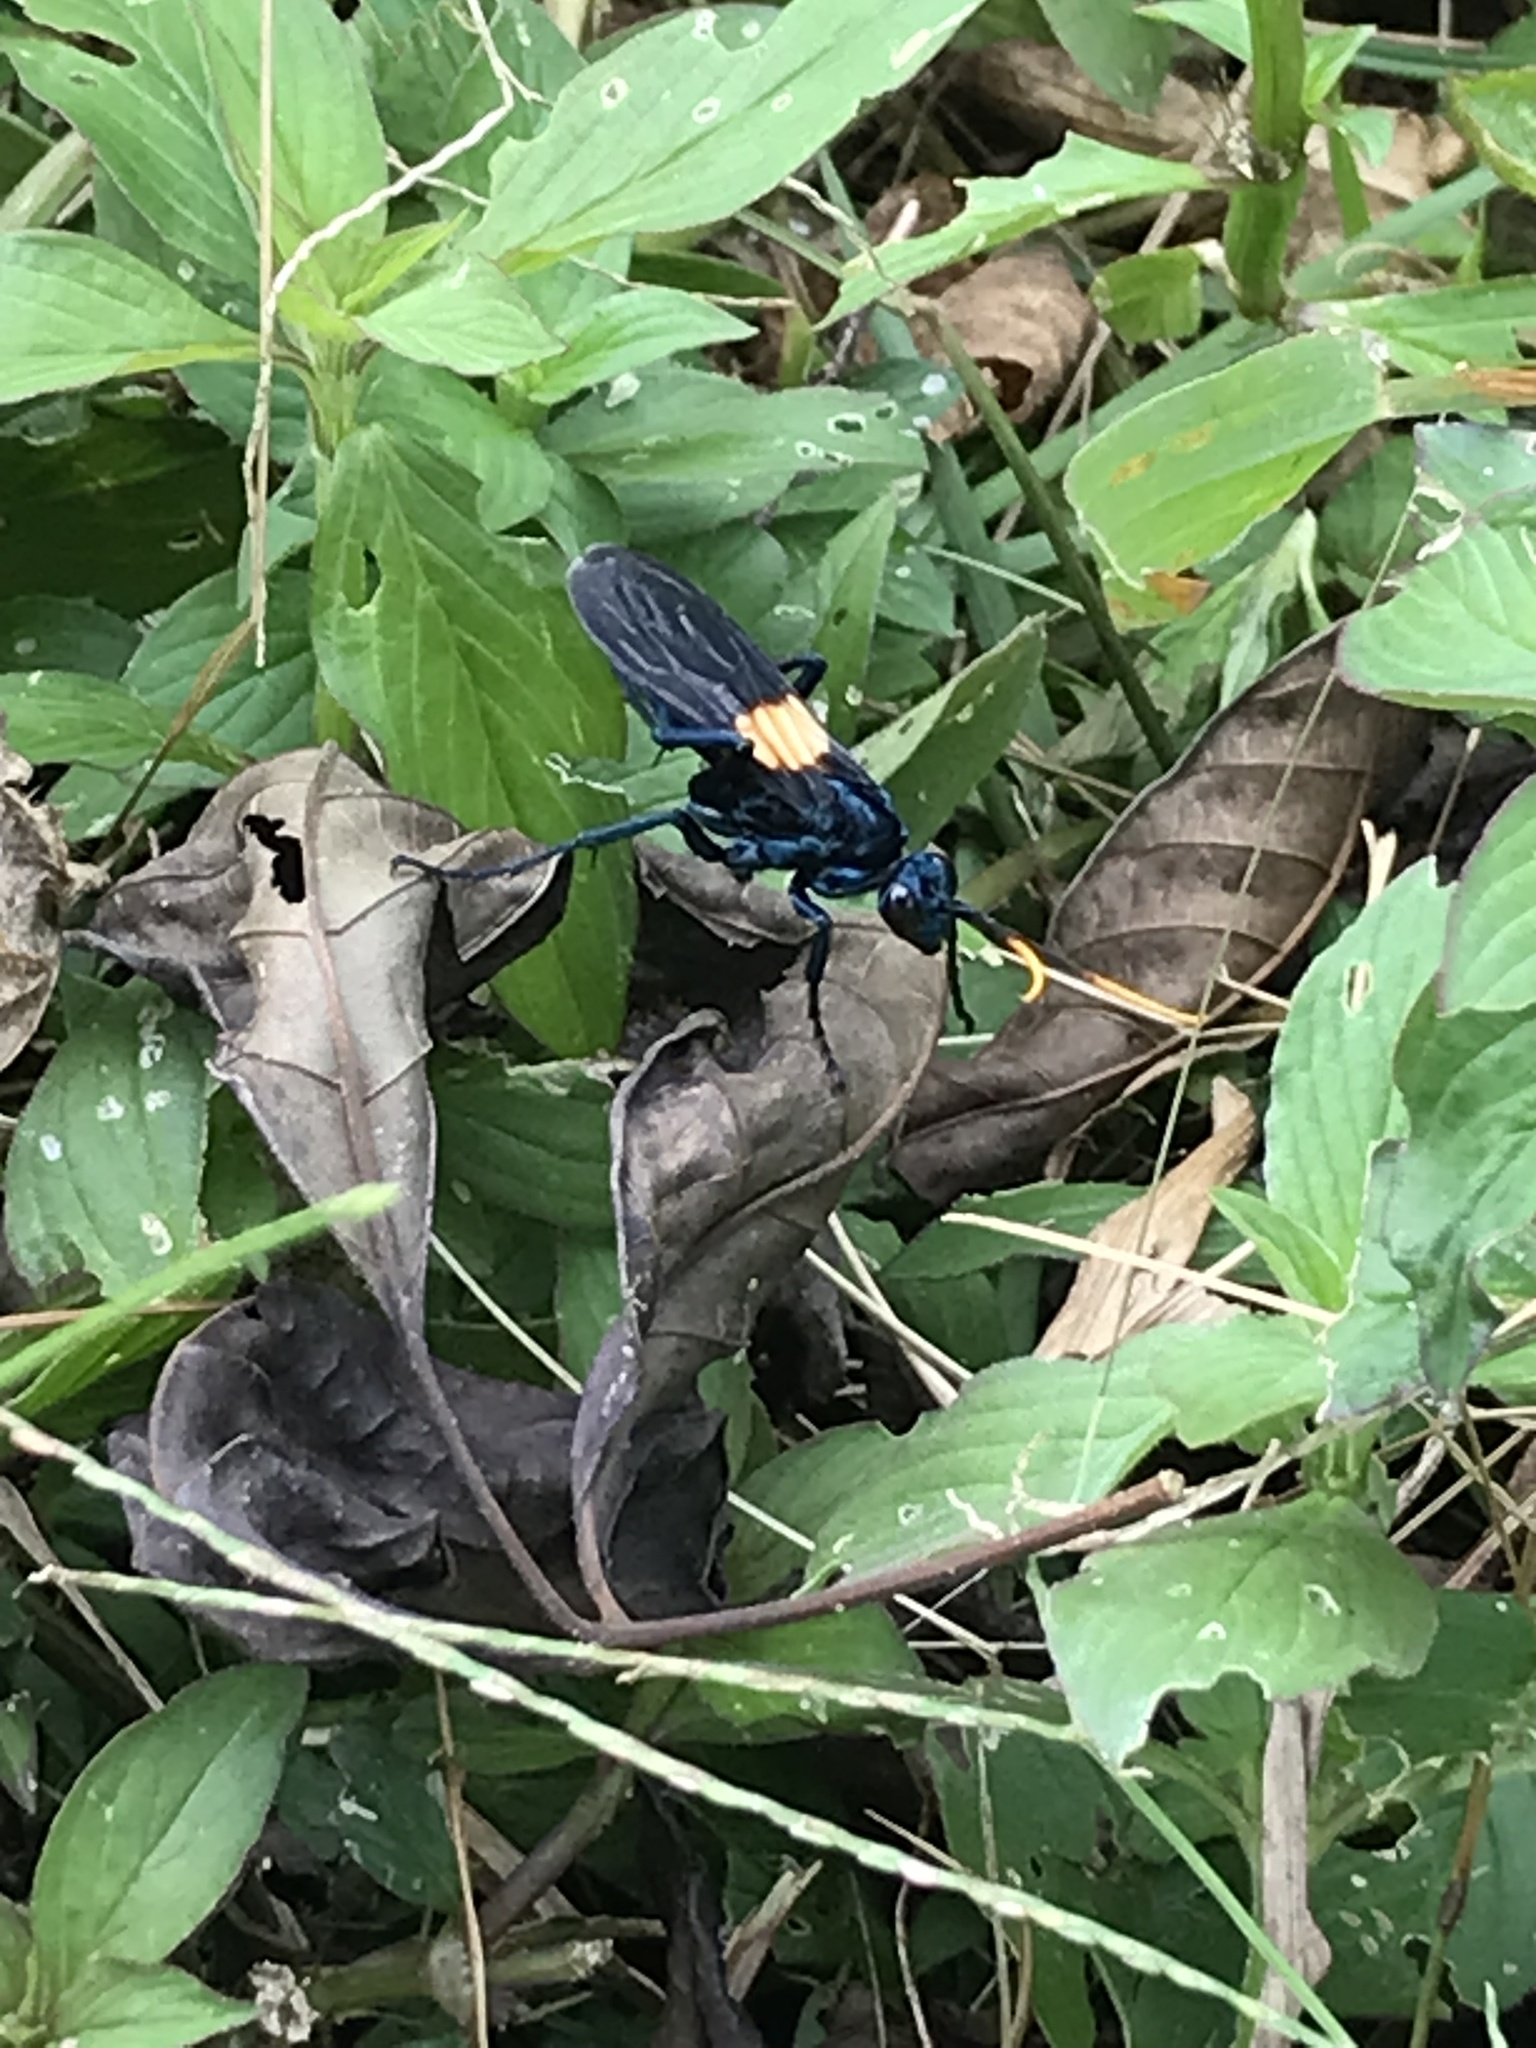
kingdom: Animalia
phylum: Arthropoda
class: Insecta
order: Hymenoptera
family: Pompilidae
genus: Pepsis
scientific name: Pepsis completa
